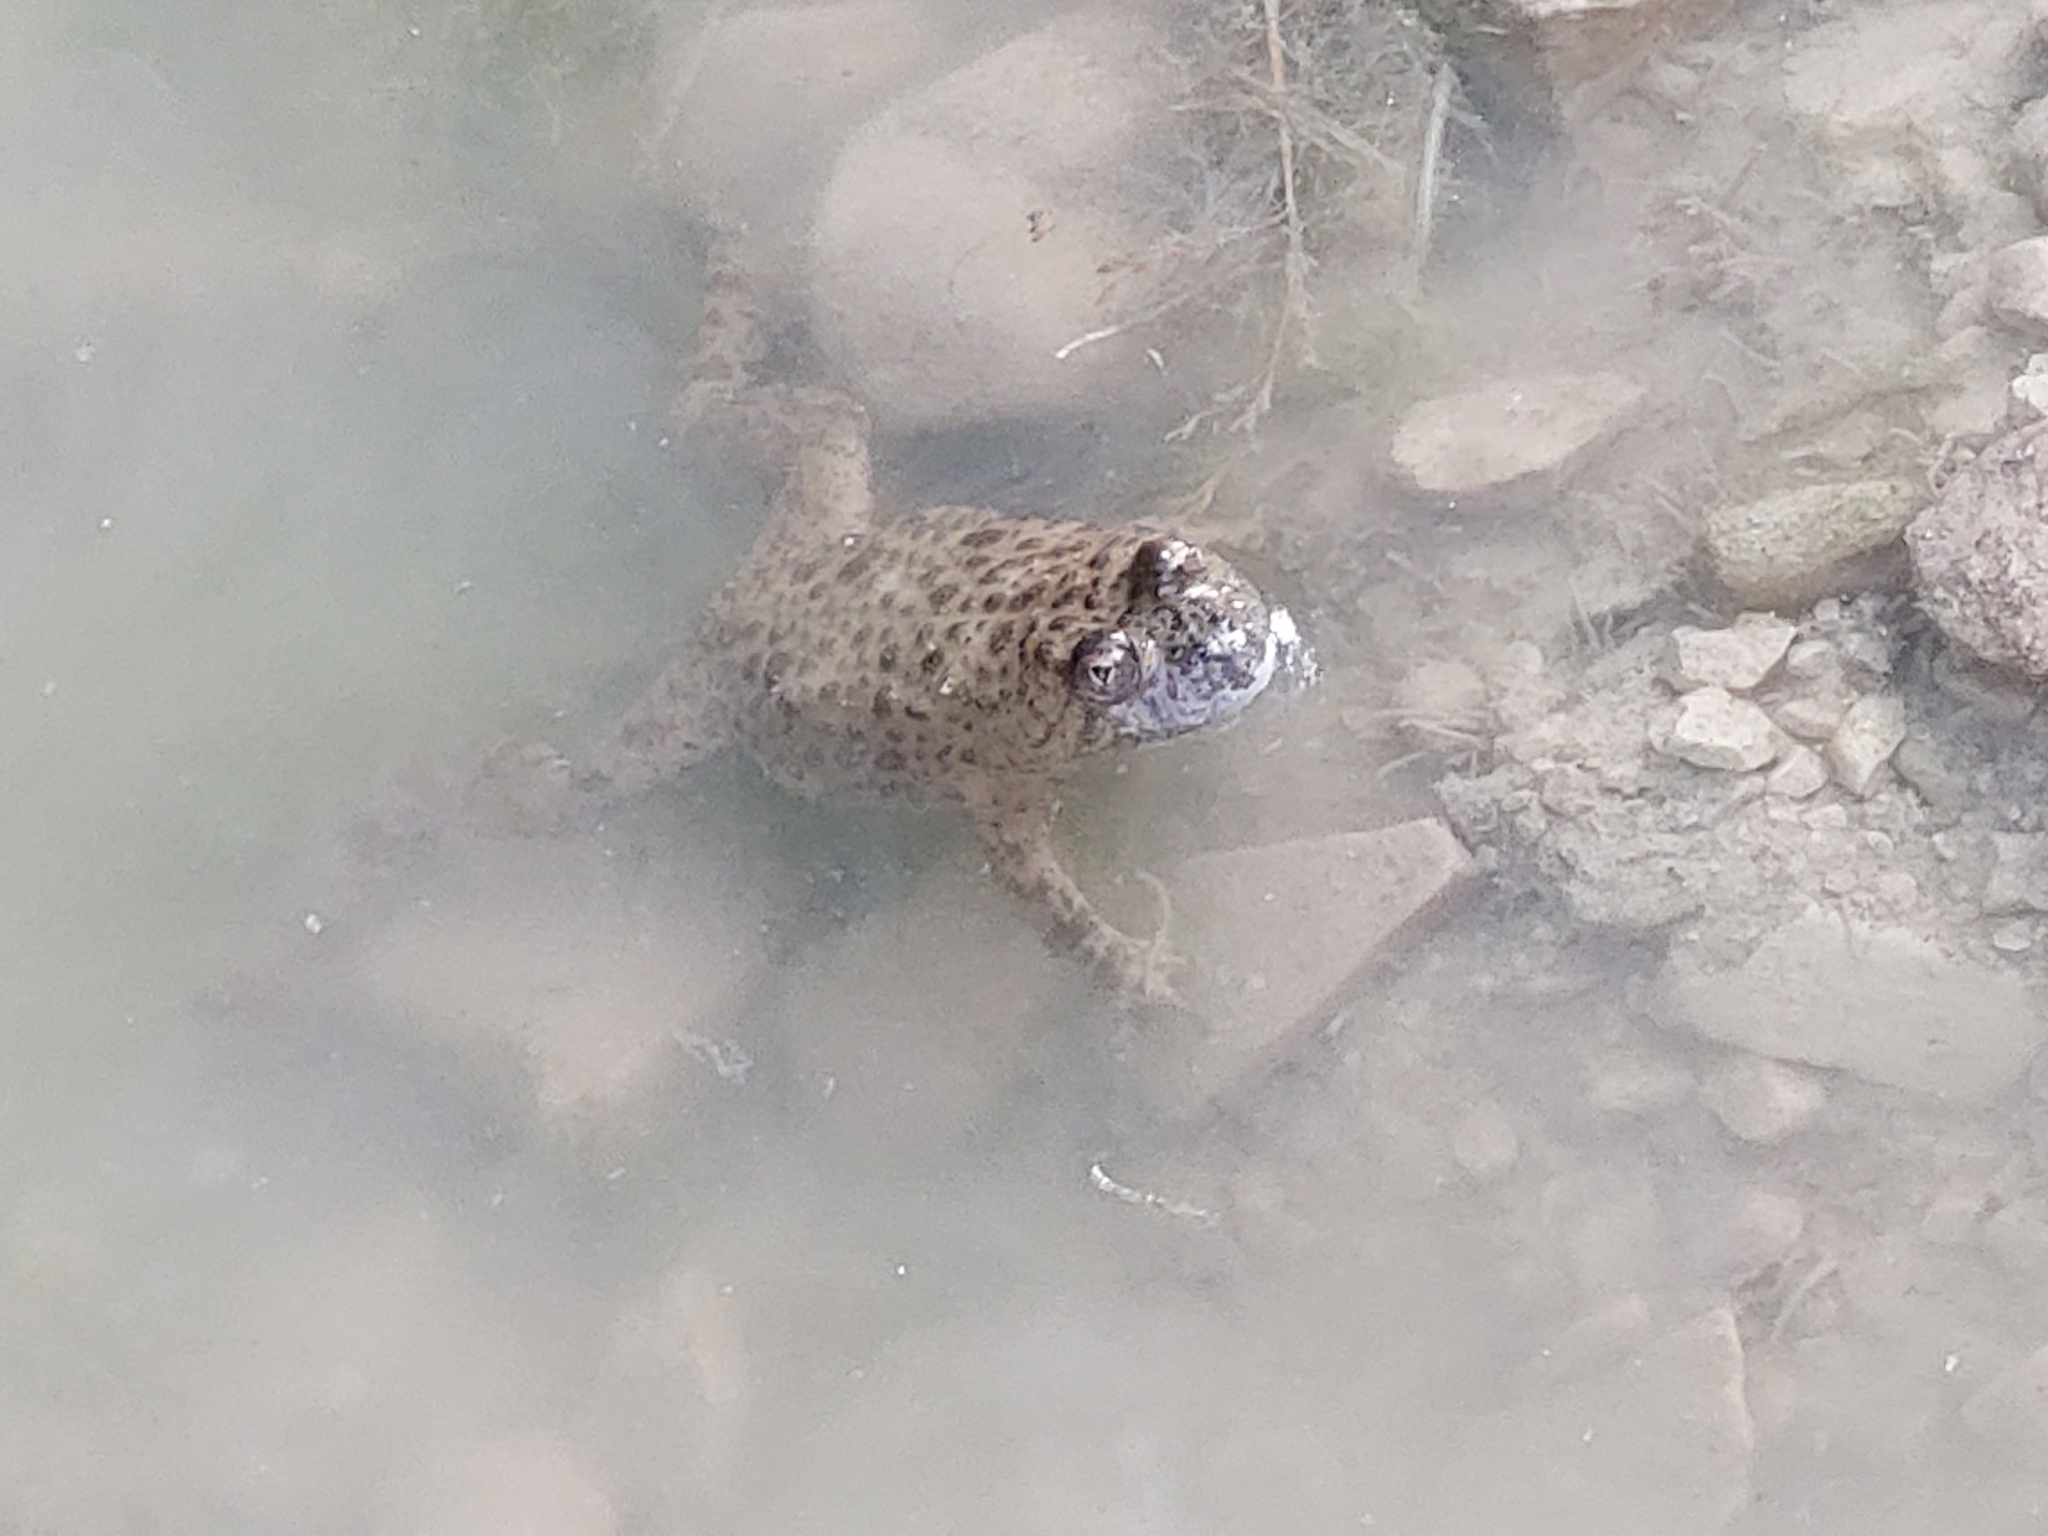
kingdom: Animalia
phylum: Chordata
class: Amphibia
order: Anura
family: Bombinatoridae
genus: Bombina
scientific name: Bombina variegata
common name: Yellow-bellied toad
